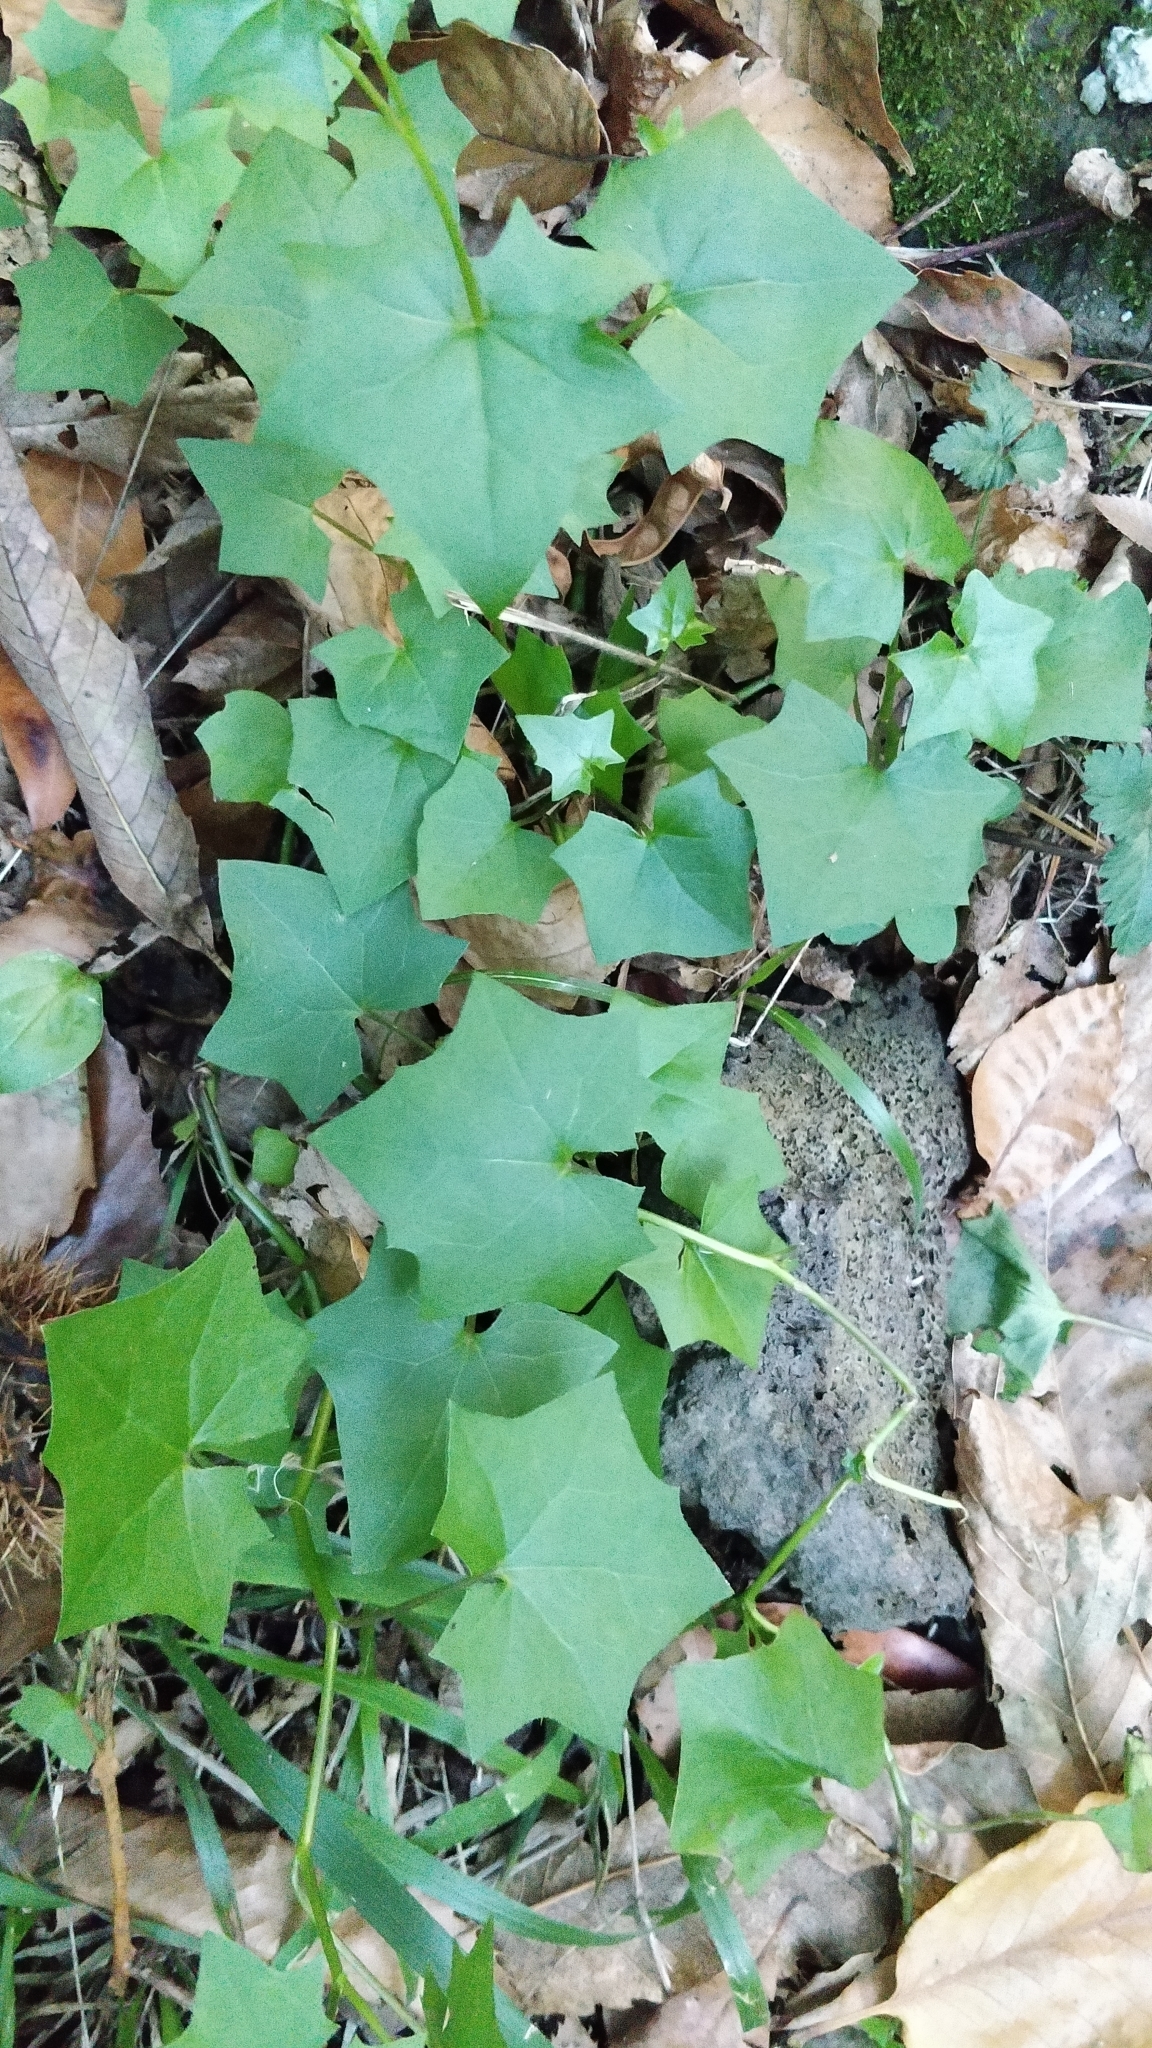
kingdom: Plantae
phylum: Tracheophyta
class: Magnoliopsida
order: Asterales
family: Asteraceae
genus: Delairea
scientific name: Delairea odorata
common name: Cape-ivy
